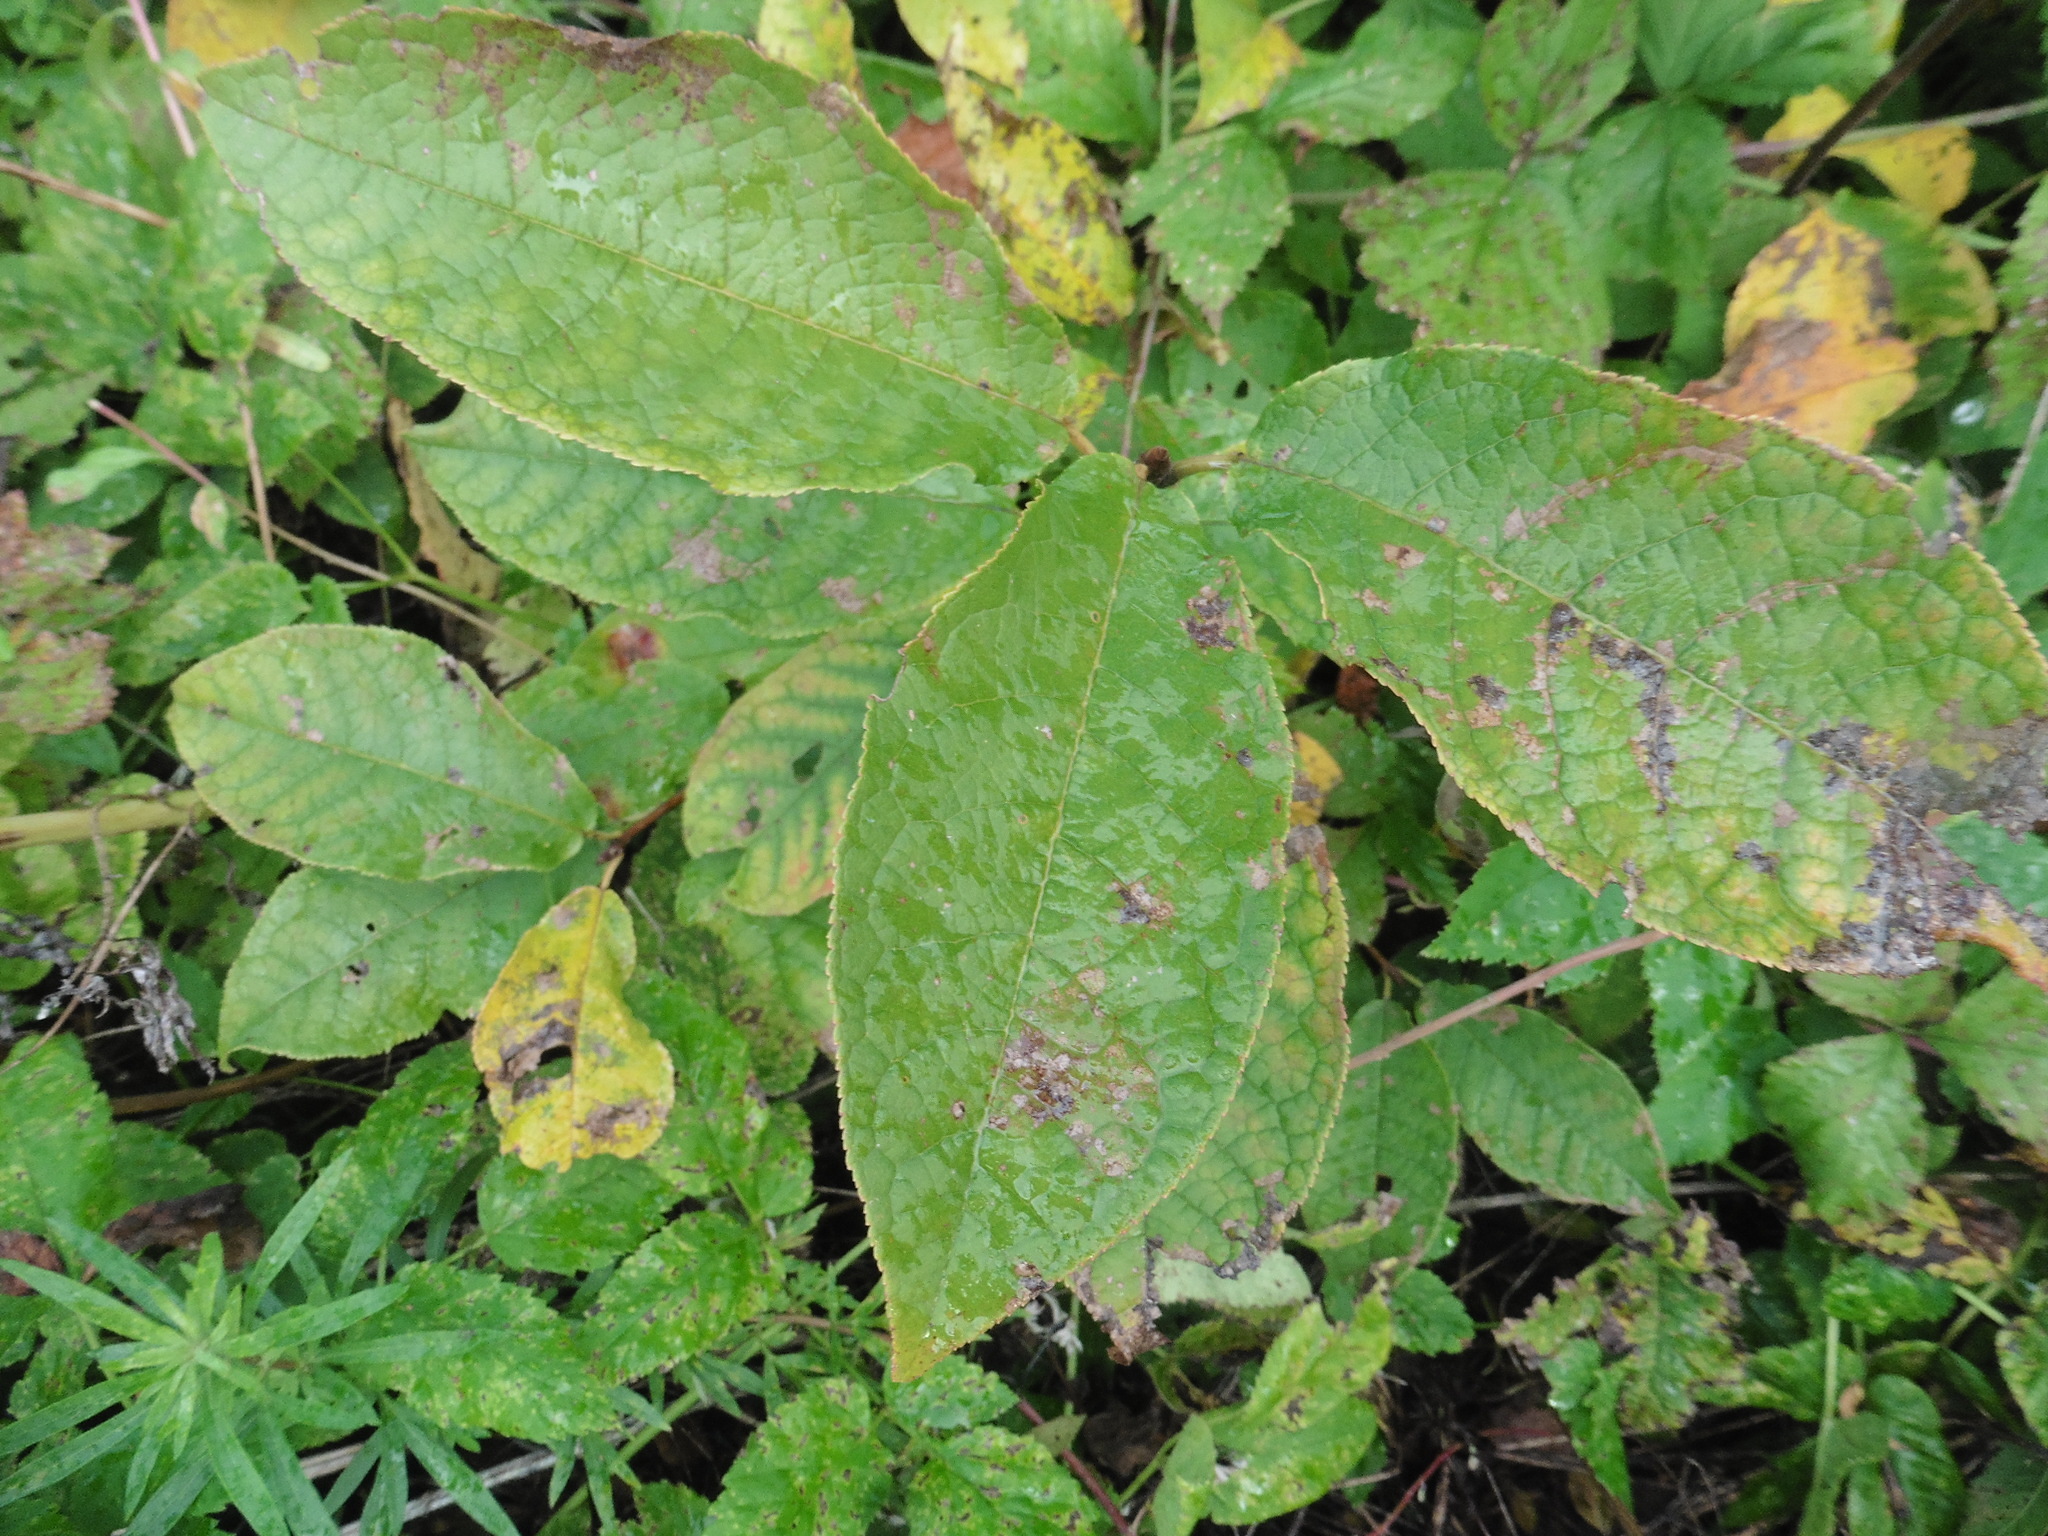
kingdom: Plantae
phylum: Tracheophyta
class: Magnoliopsida
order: Rosales
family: Rosaceae
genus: Prunus
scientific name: Prunus padus
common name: Bird cherry
